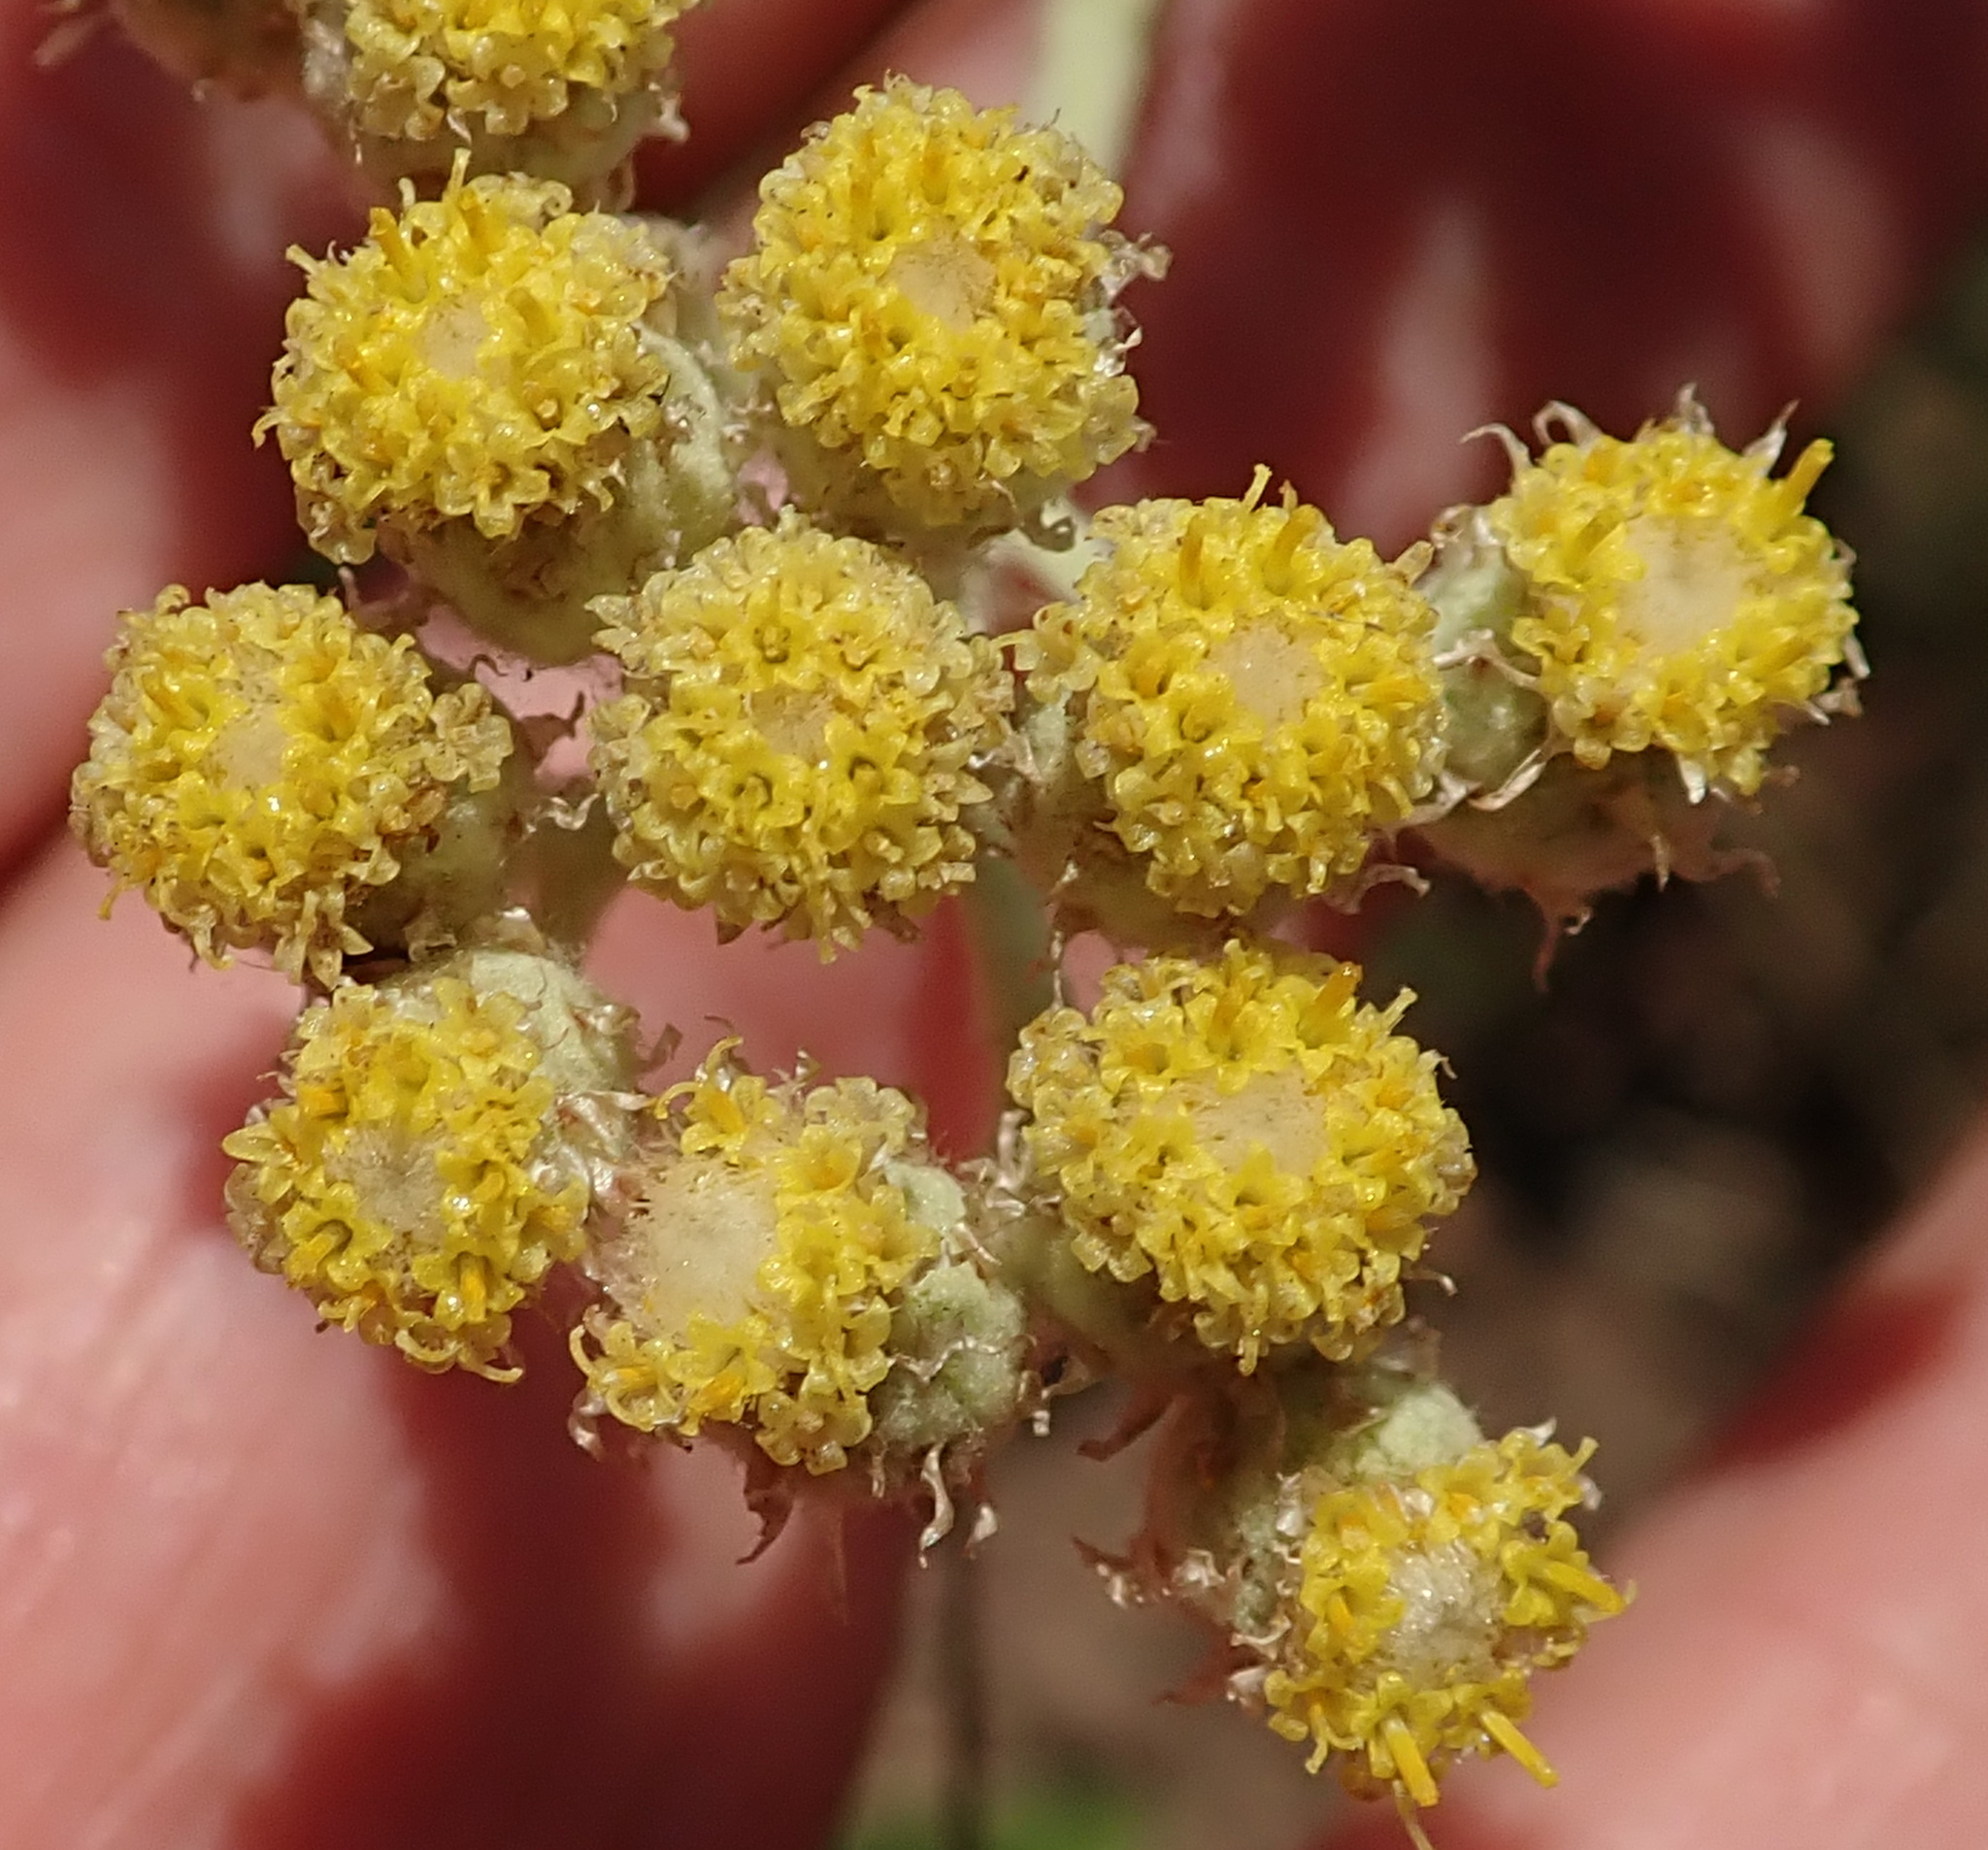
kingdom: Plantae
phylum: Tracheophyta
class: Magnoliopsida
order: Asterales
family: Asteraceae
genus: Helichrysum
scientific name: Helichrysum nudifolium
